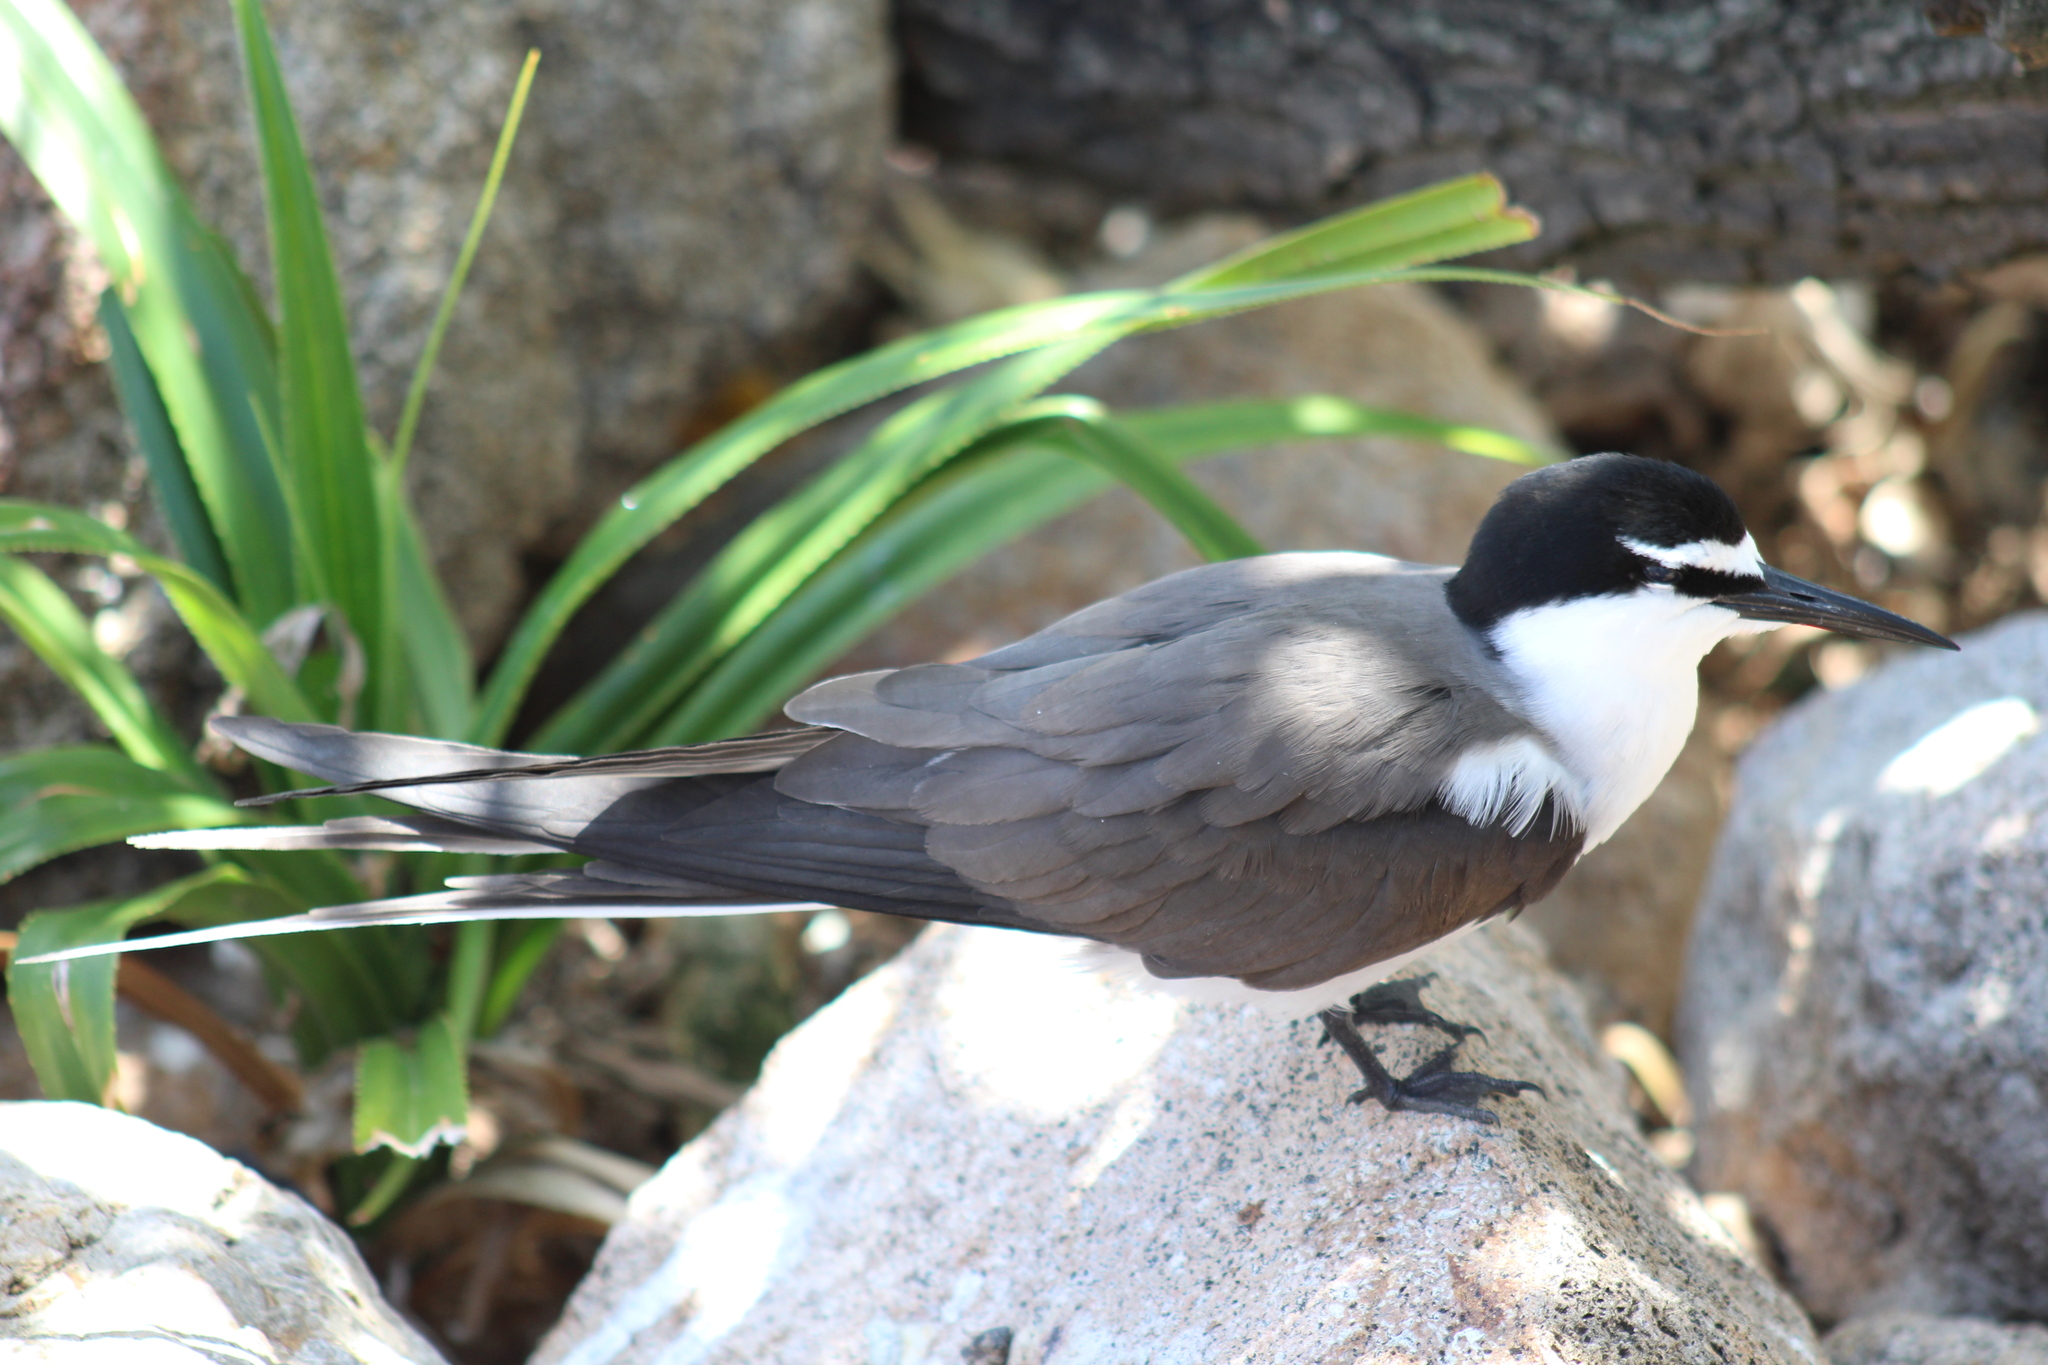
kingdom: Animalia
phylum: Chordata
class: Aves
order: Charadriiformes
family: Laridae
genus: Onychoprion
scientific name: Onychoprion anaethetus
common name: Bridled tern
